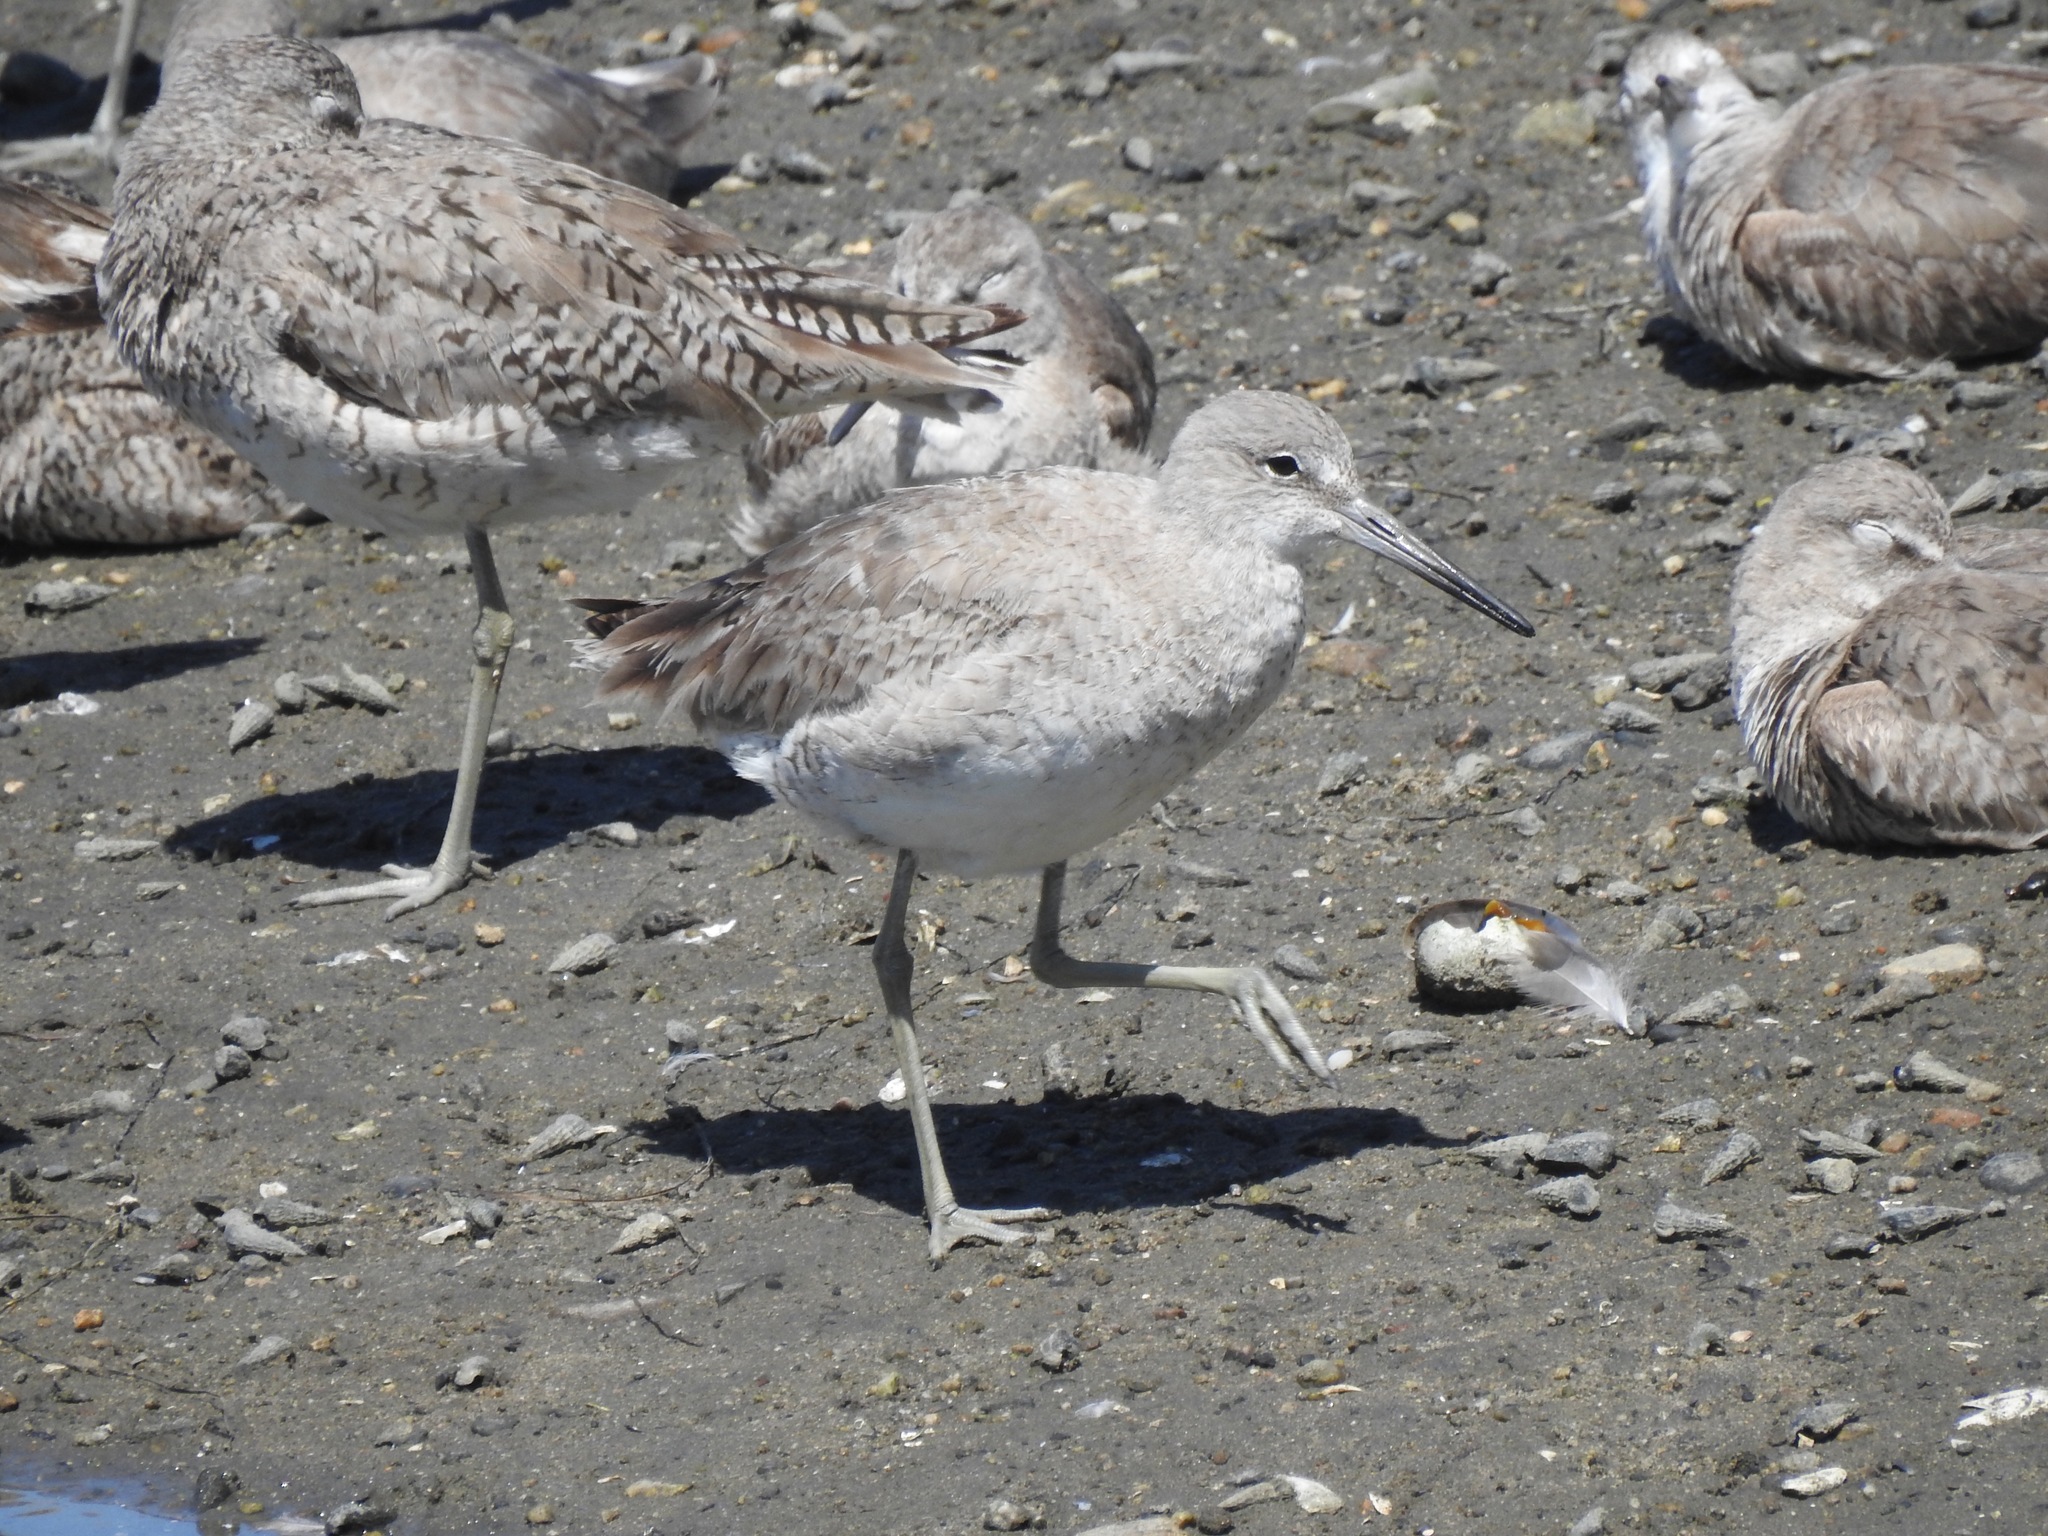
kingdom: Animalia
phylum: Chordata
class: Aves
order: Charadriiformes
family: Scolopacidae
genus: Tringa
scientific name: Tringa semipalmata
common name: Willet
